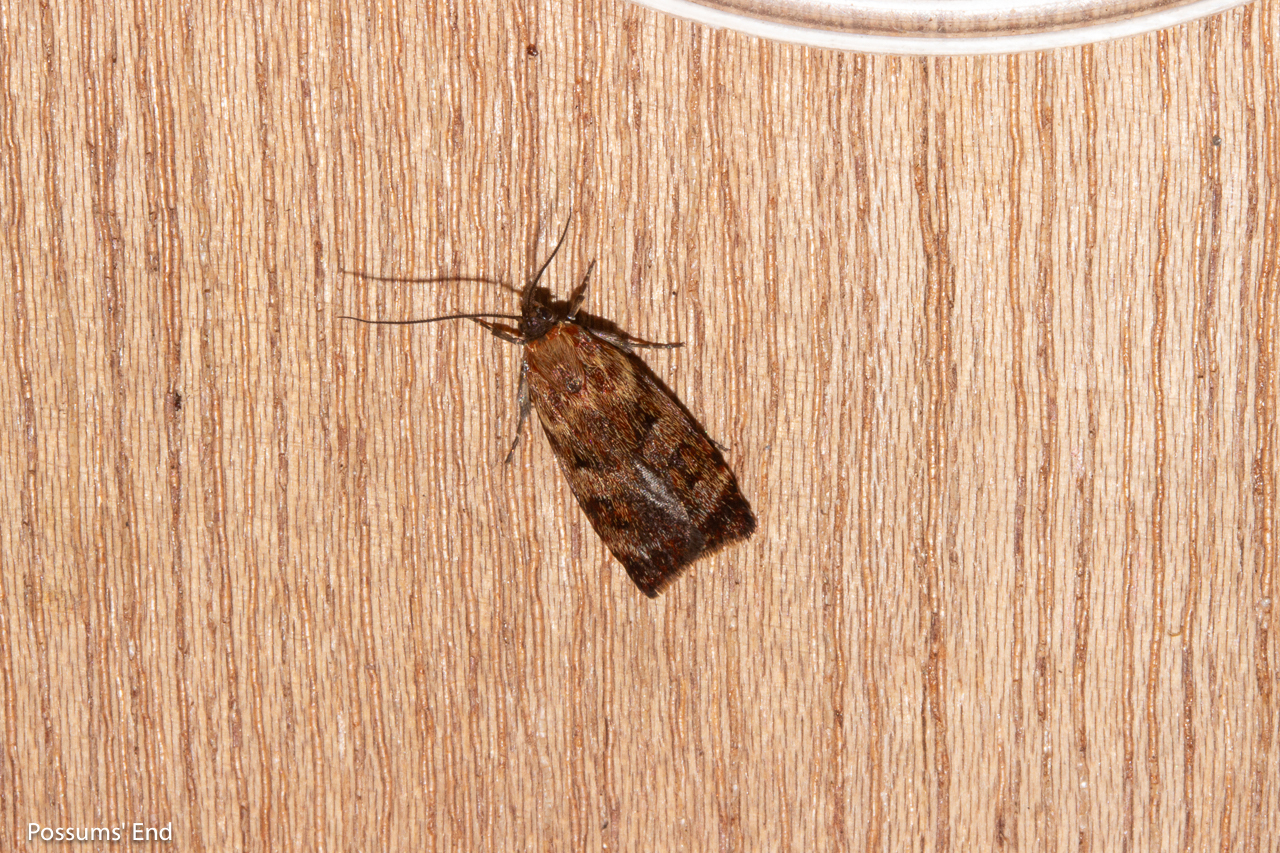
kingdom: Animalia
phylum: Arthropoda
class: Insecta
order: Lepidoptera
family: Oecophoridae
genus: Hierodoris
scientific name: Hierodoris
